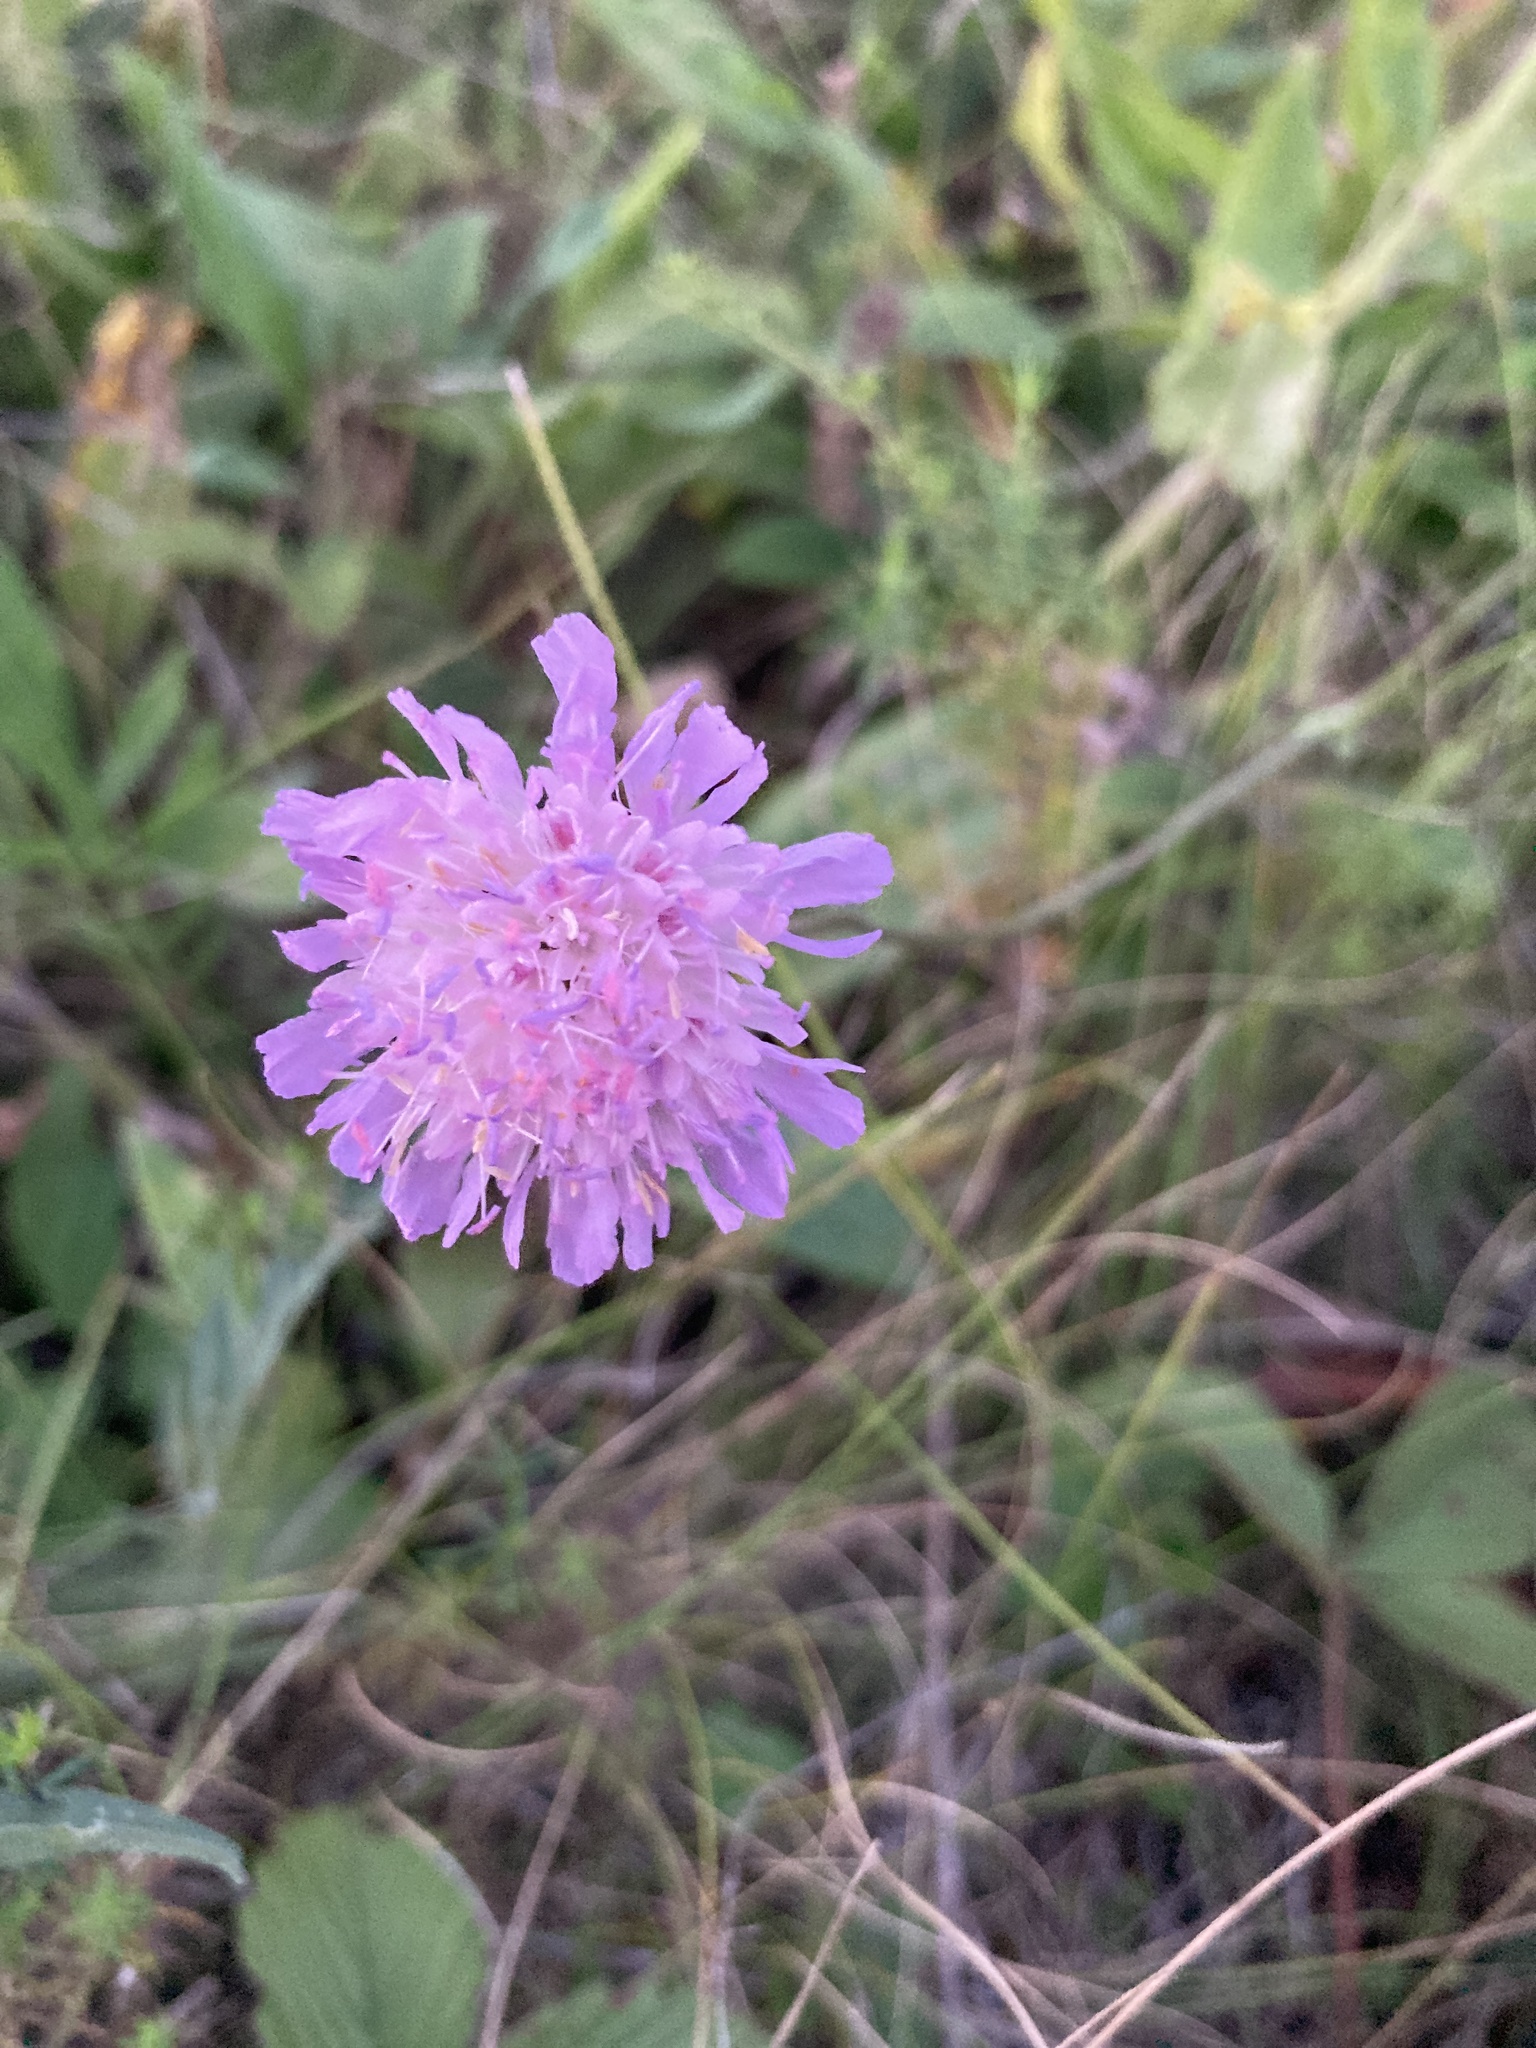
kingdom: Plantae
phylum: Tracheophyta
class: Magnoliopsida
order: Dipsacales
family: Caprifoliaceae
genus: Knautia
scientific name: Knautia arvensis
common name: Field scabiosa
